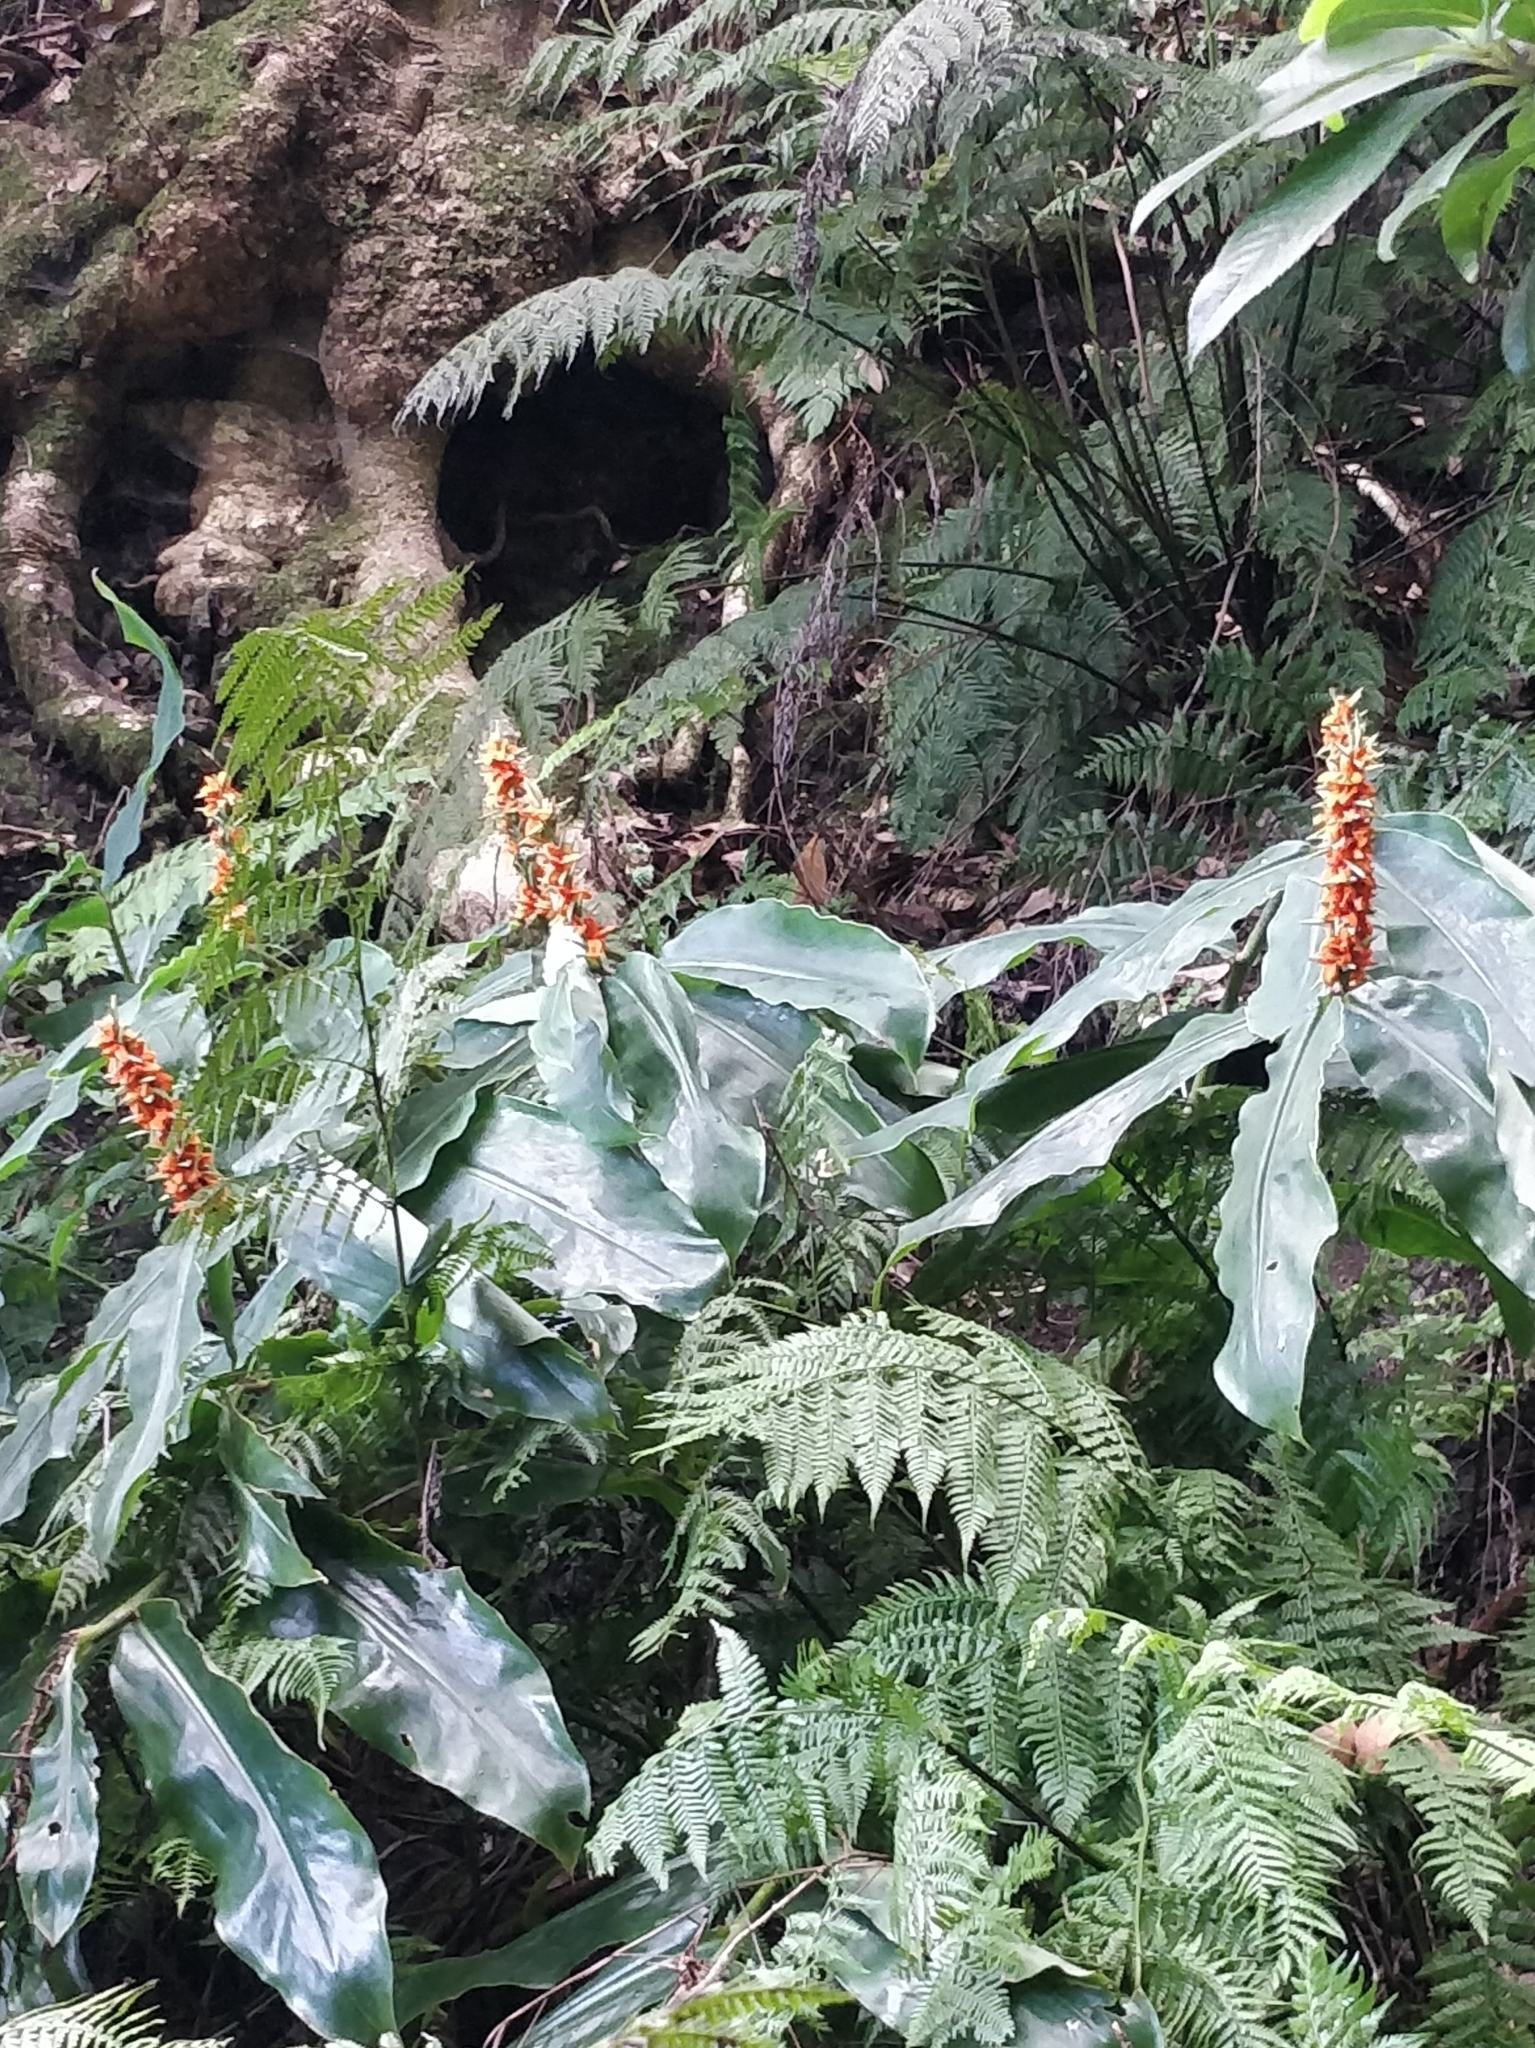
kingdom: Plantae
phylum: Tracheophyta
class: Liliopsida
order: Zingiberales
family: Zingiberaceae
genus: Hedychium
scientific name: Hedychium gardnerianum
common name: Himalayan ginger
